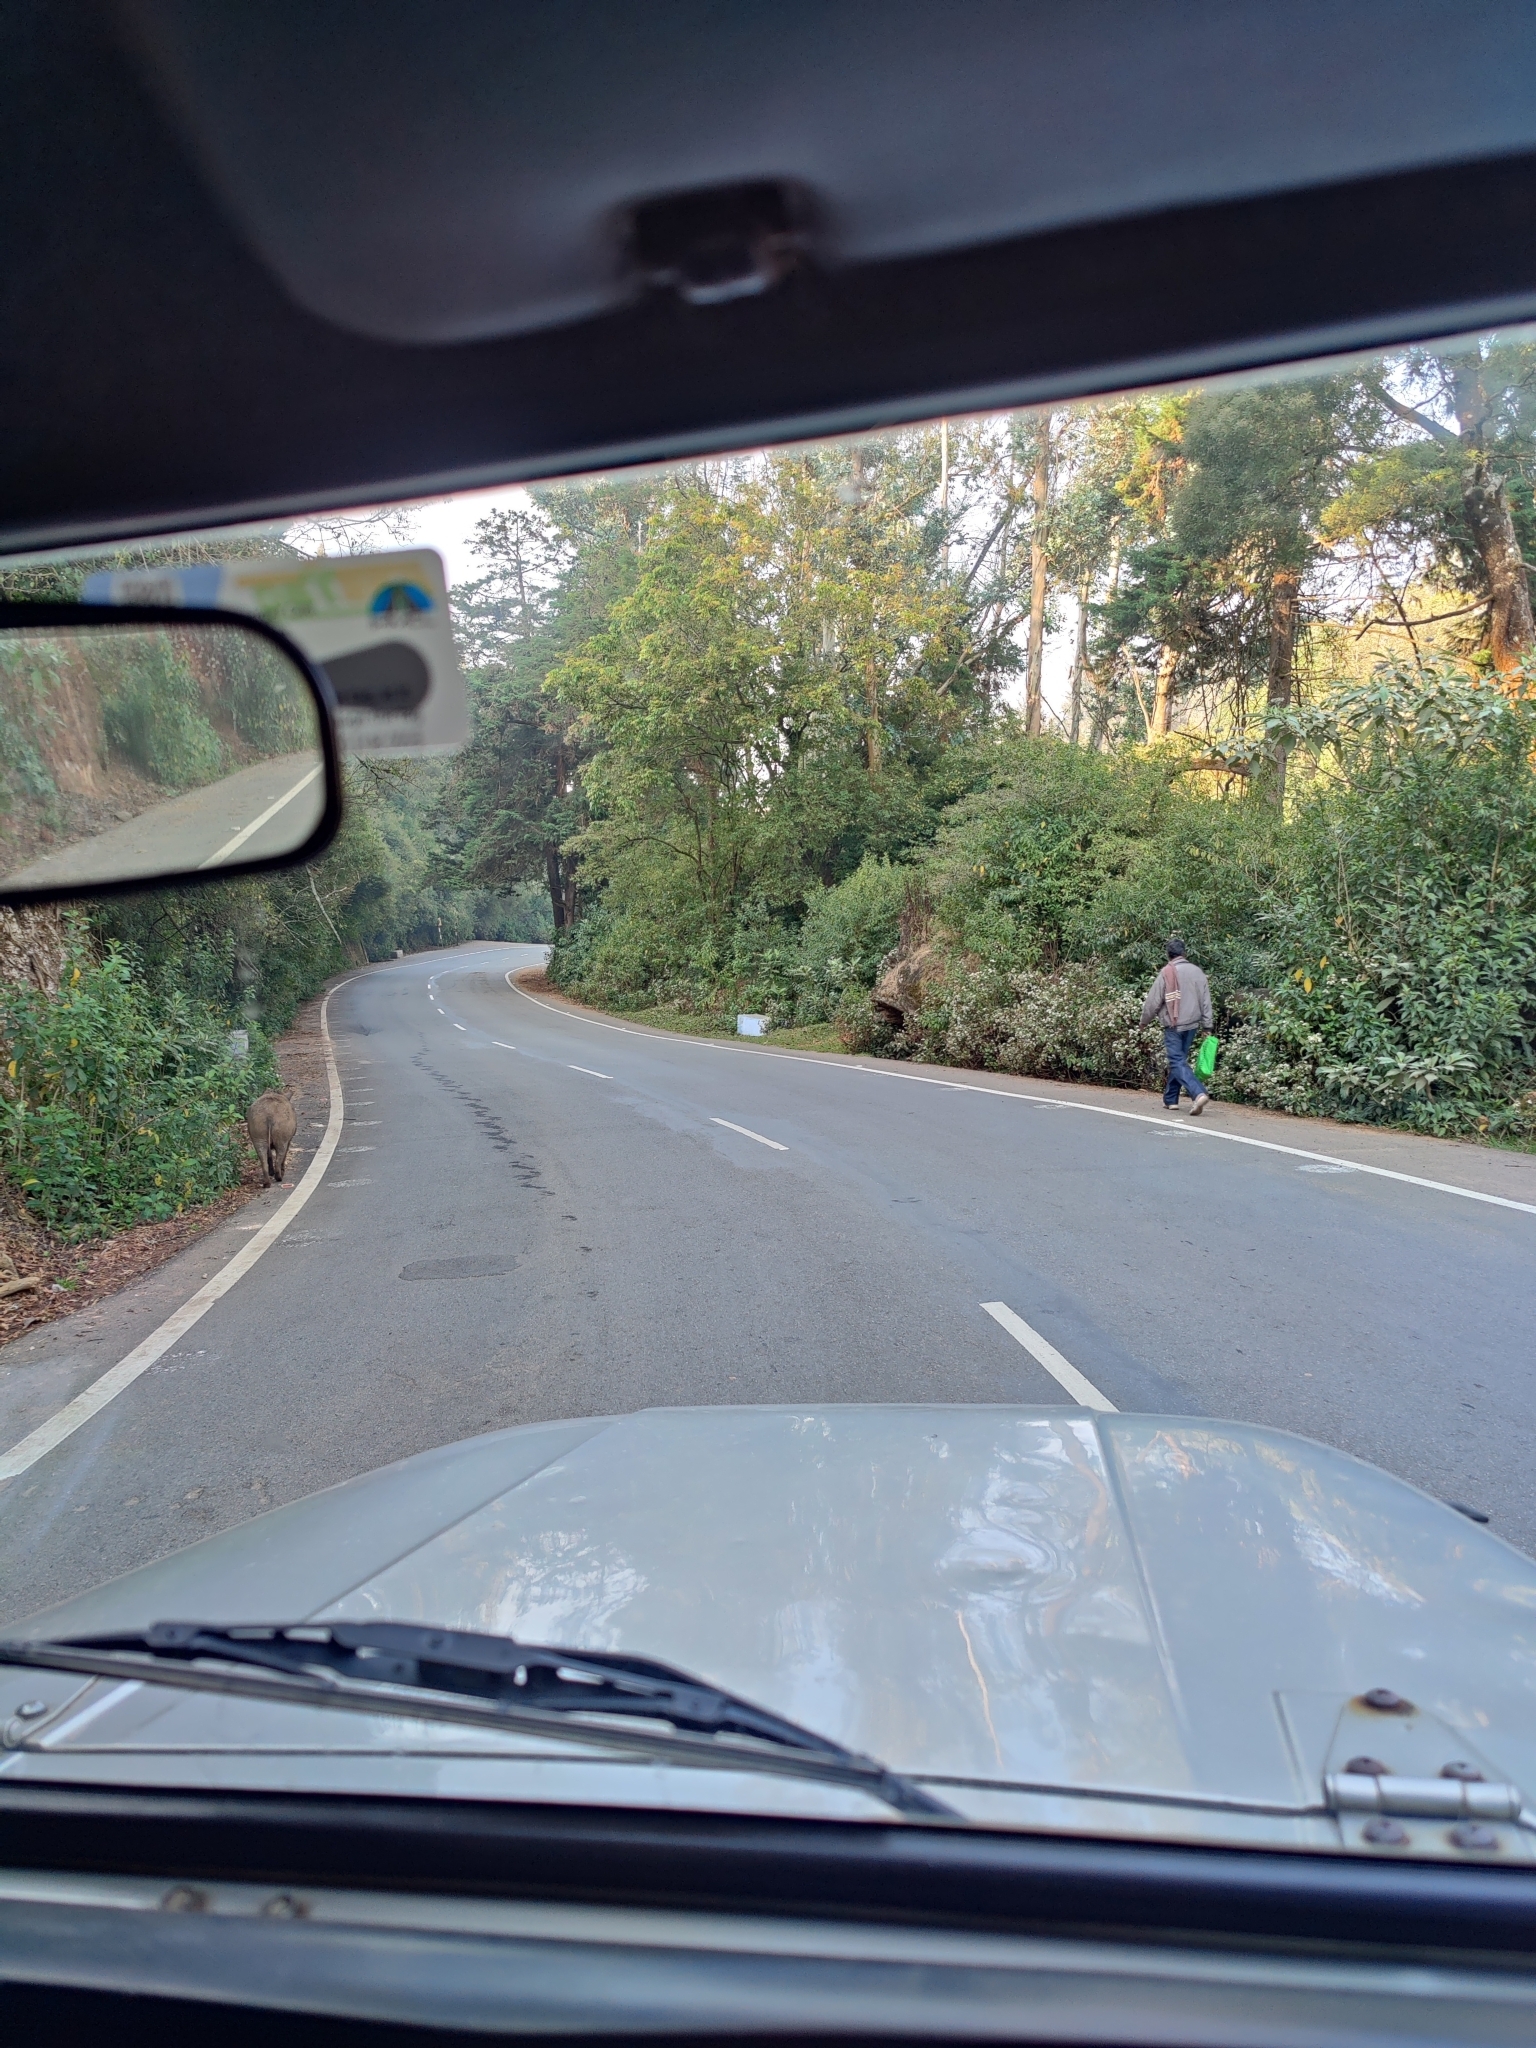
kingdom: Animalia
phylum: Chordata
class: Mammalia
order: Artiodactyla
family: Suidae
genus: Sus
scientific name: Sus scrofa
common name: Wild boar
